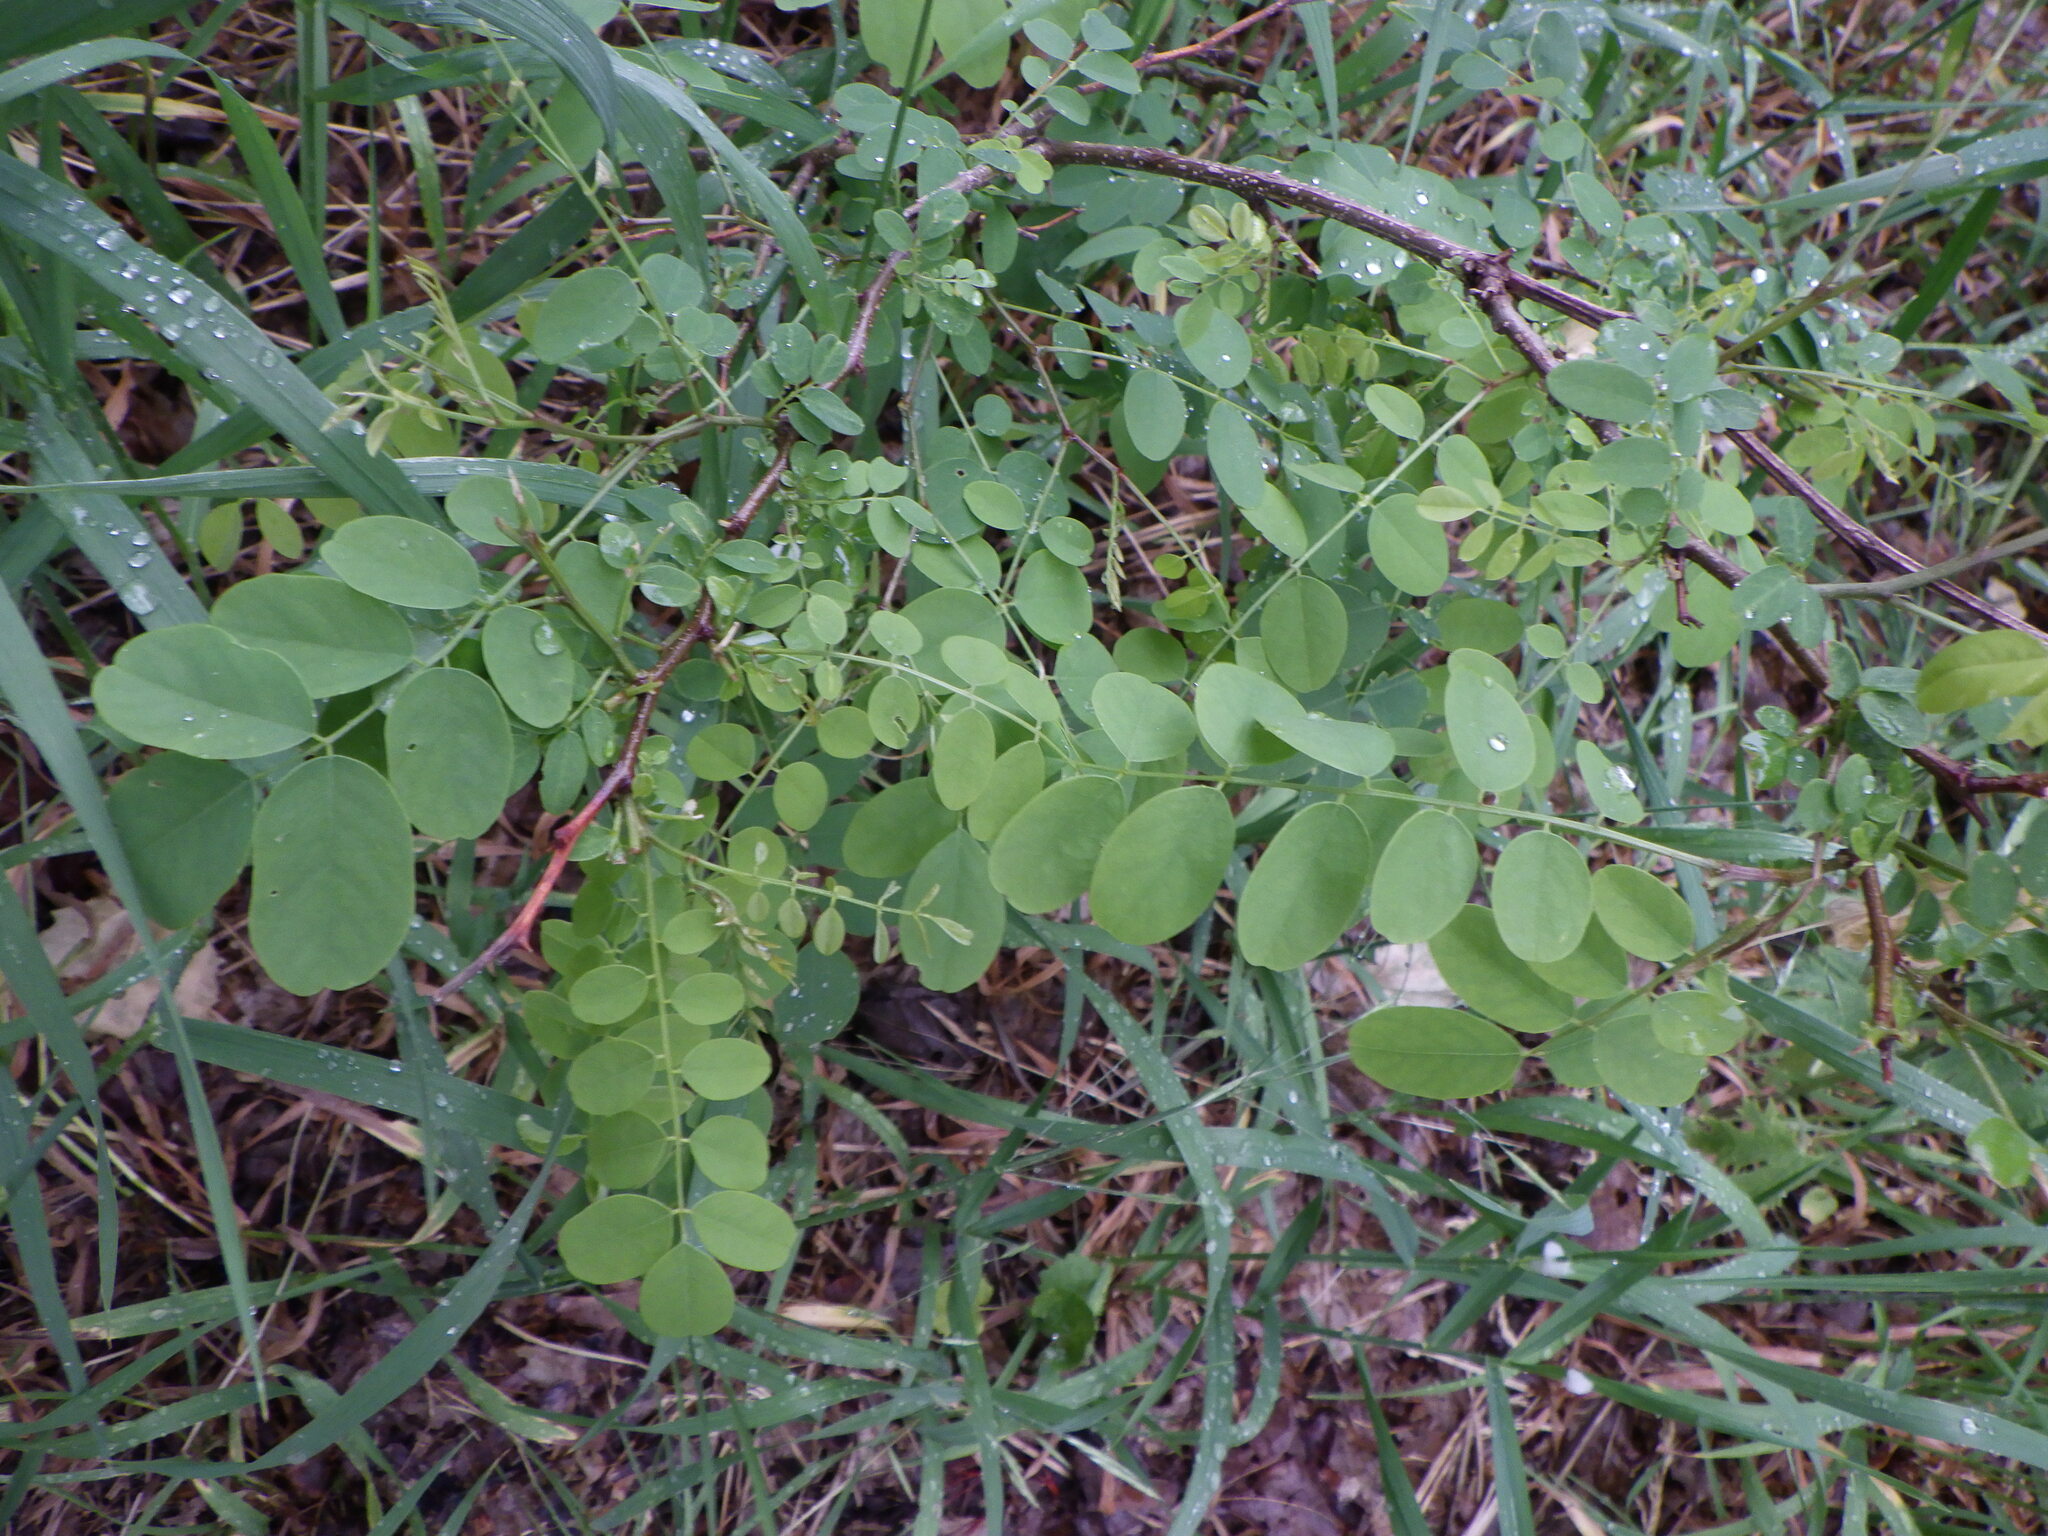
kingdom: Plantae
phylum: Tracheophyta
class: Magnoliopsida
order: Fabales
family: Fabaceae
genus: Robinia
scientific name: Robinia pseudoacacia
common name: Black locust
